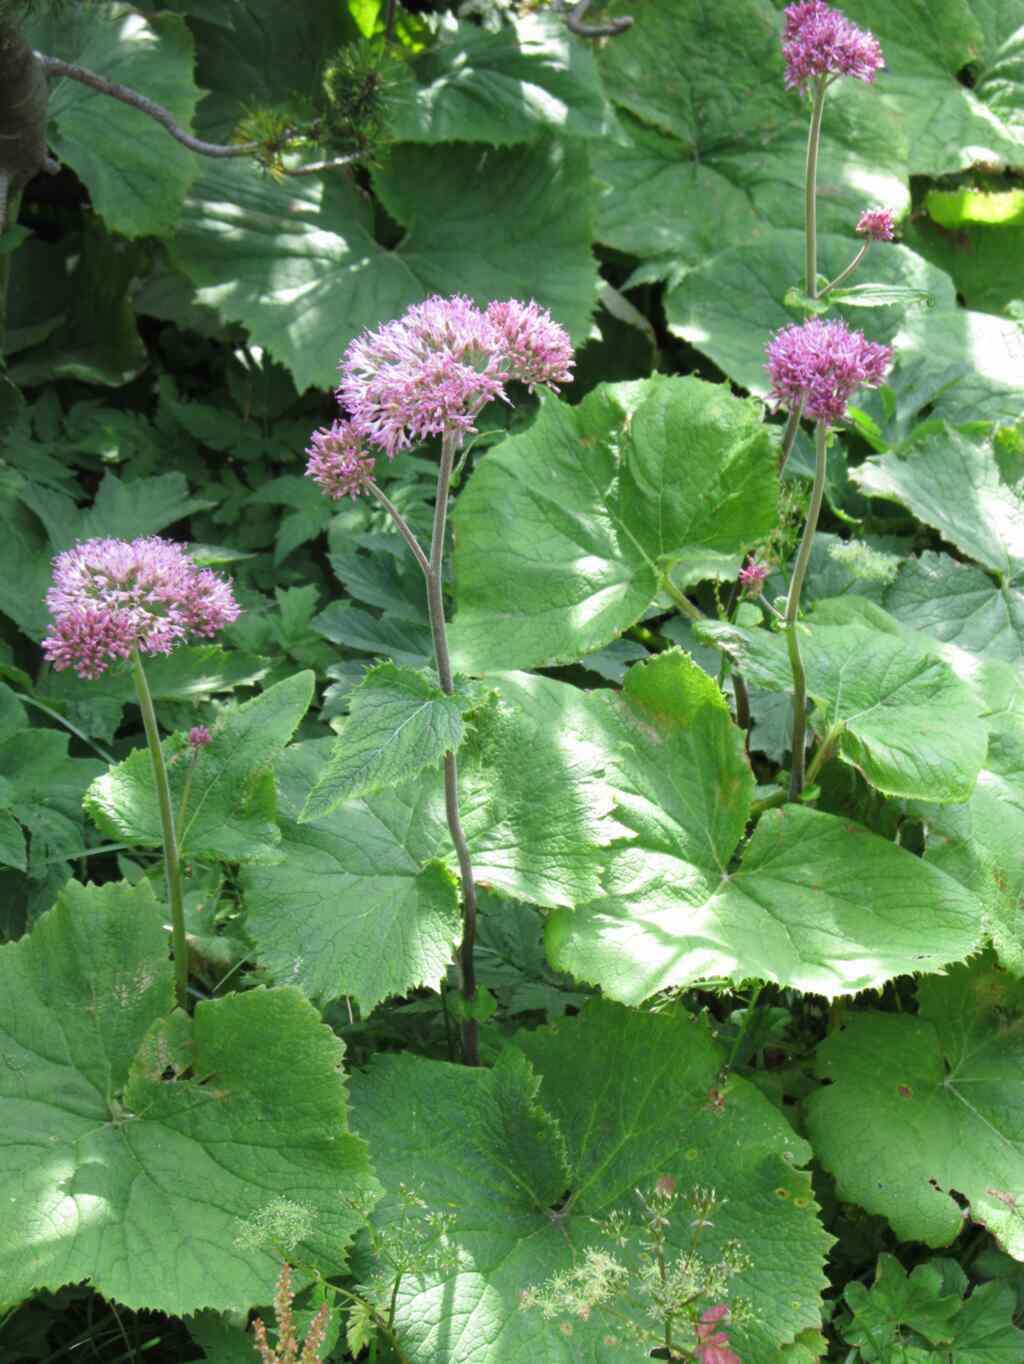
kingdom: Plantae
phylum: Tracheophyta
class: Magnoliopsida
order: Asterales
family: Asteraceae
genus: Adenostyles
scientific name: Adenostyles alliariae
